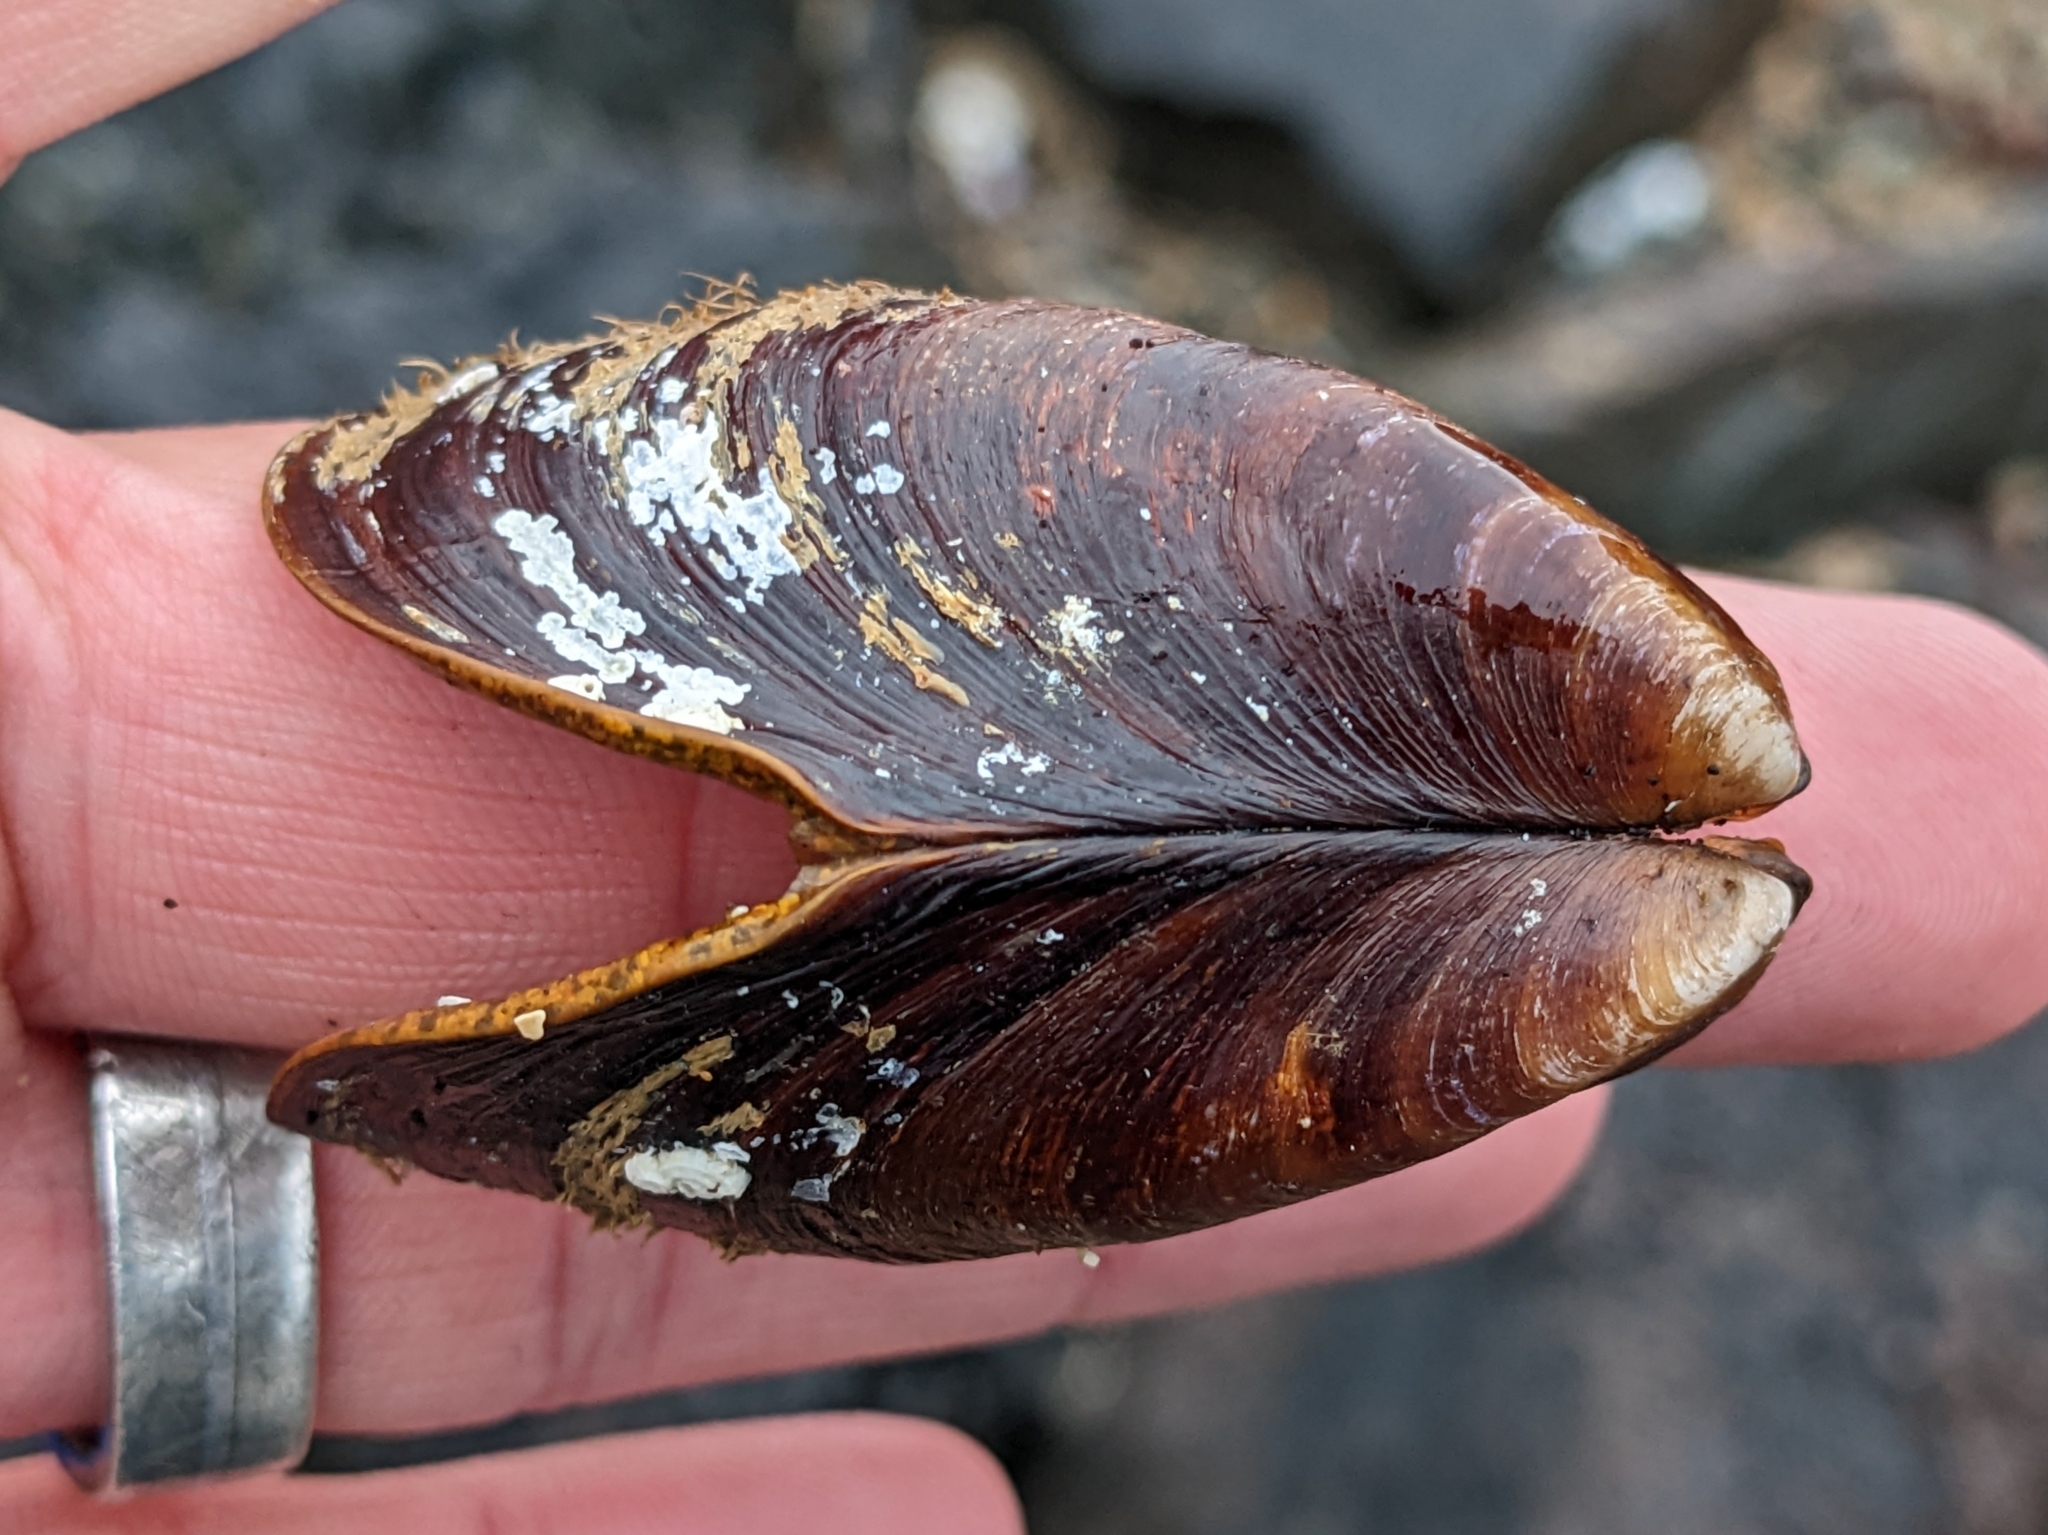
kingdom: Animalia
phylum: Mollusca
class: Bivalvia
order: Mytilida
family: Mytilidae
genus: Modiolus
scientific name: Modiolus modiolus
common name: Horse-mussel
